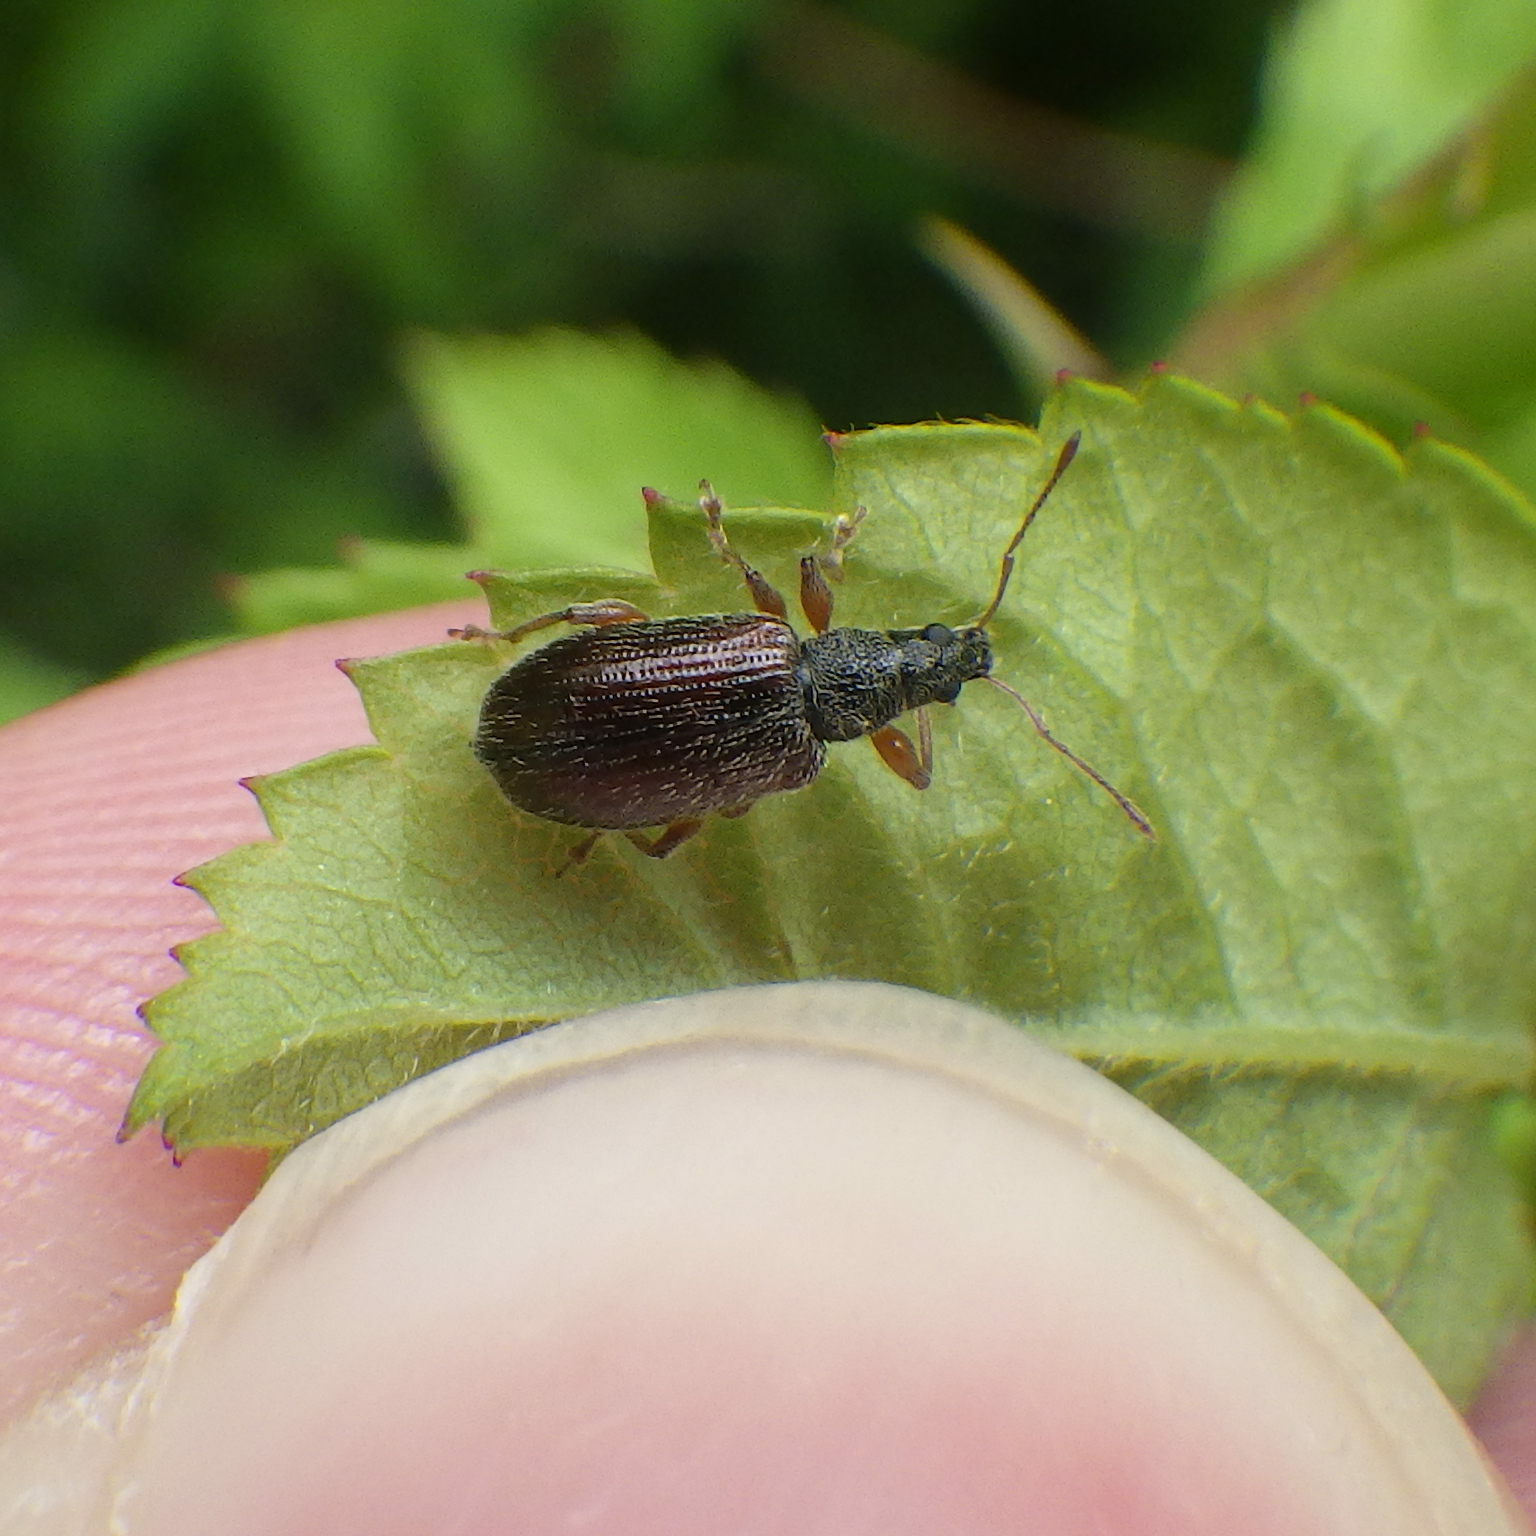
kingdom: Animalia
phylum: Arthropoda
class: Insecta
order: Coleoptera
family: Curculionidae
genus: Phyllobius
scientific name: Phyllobius oblongus
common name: Brown leaf weevil
